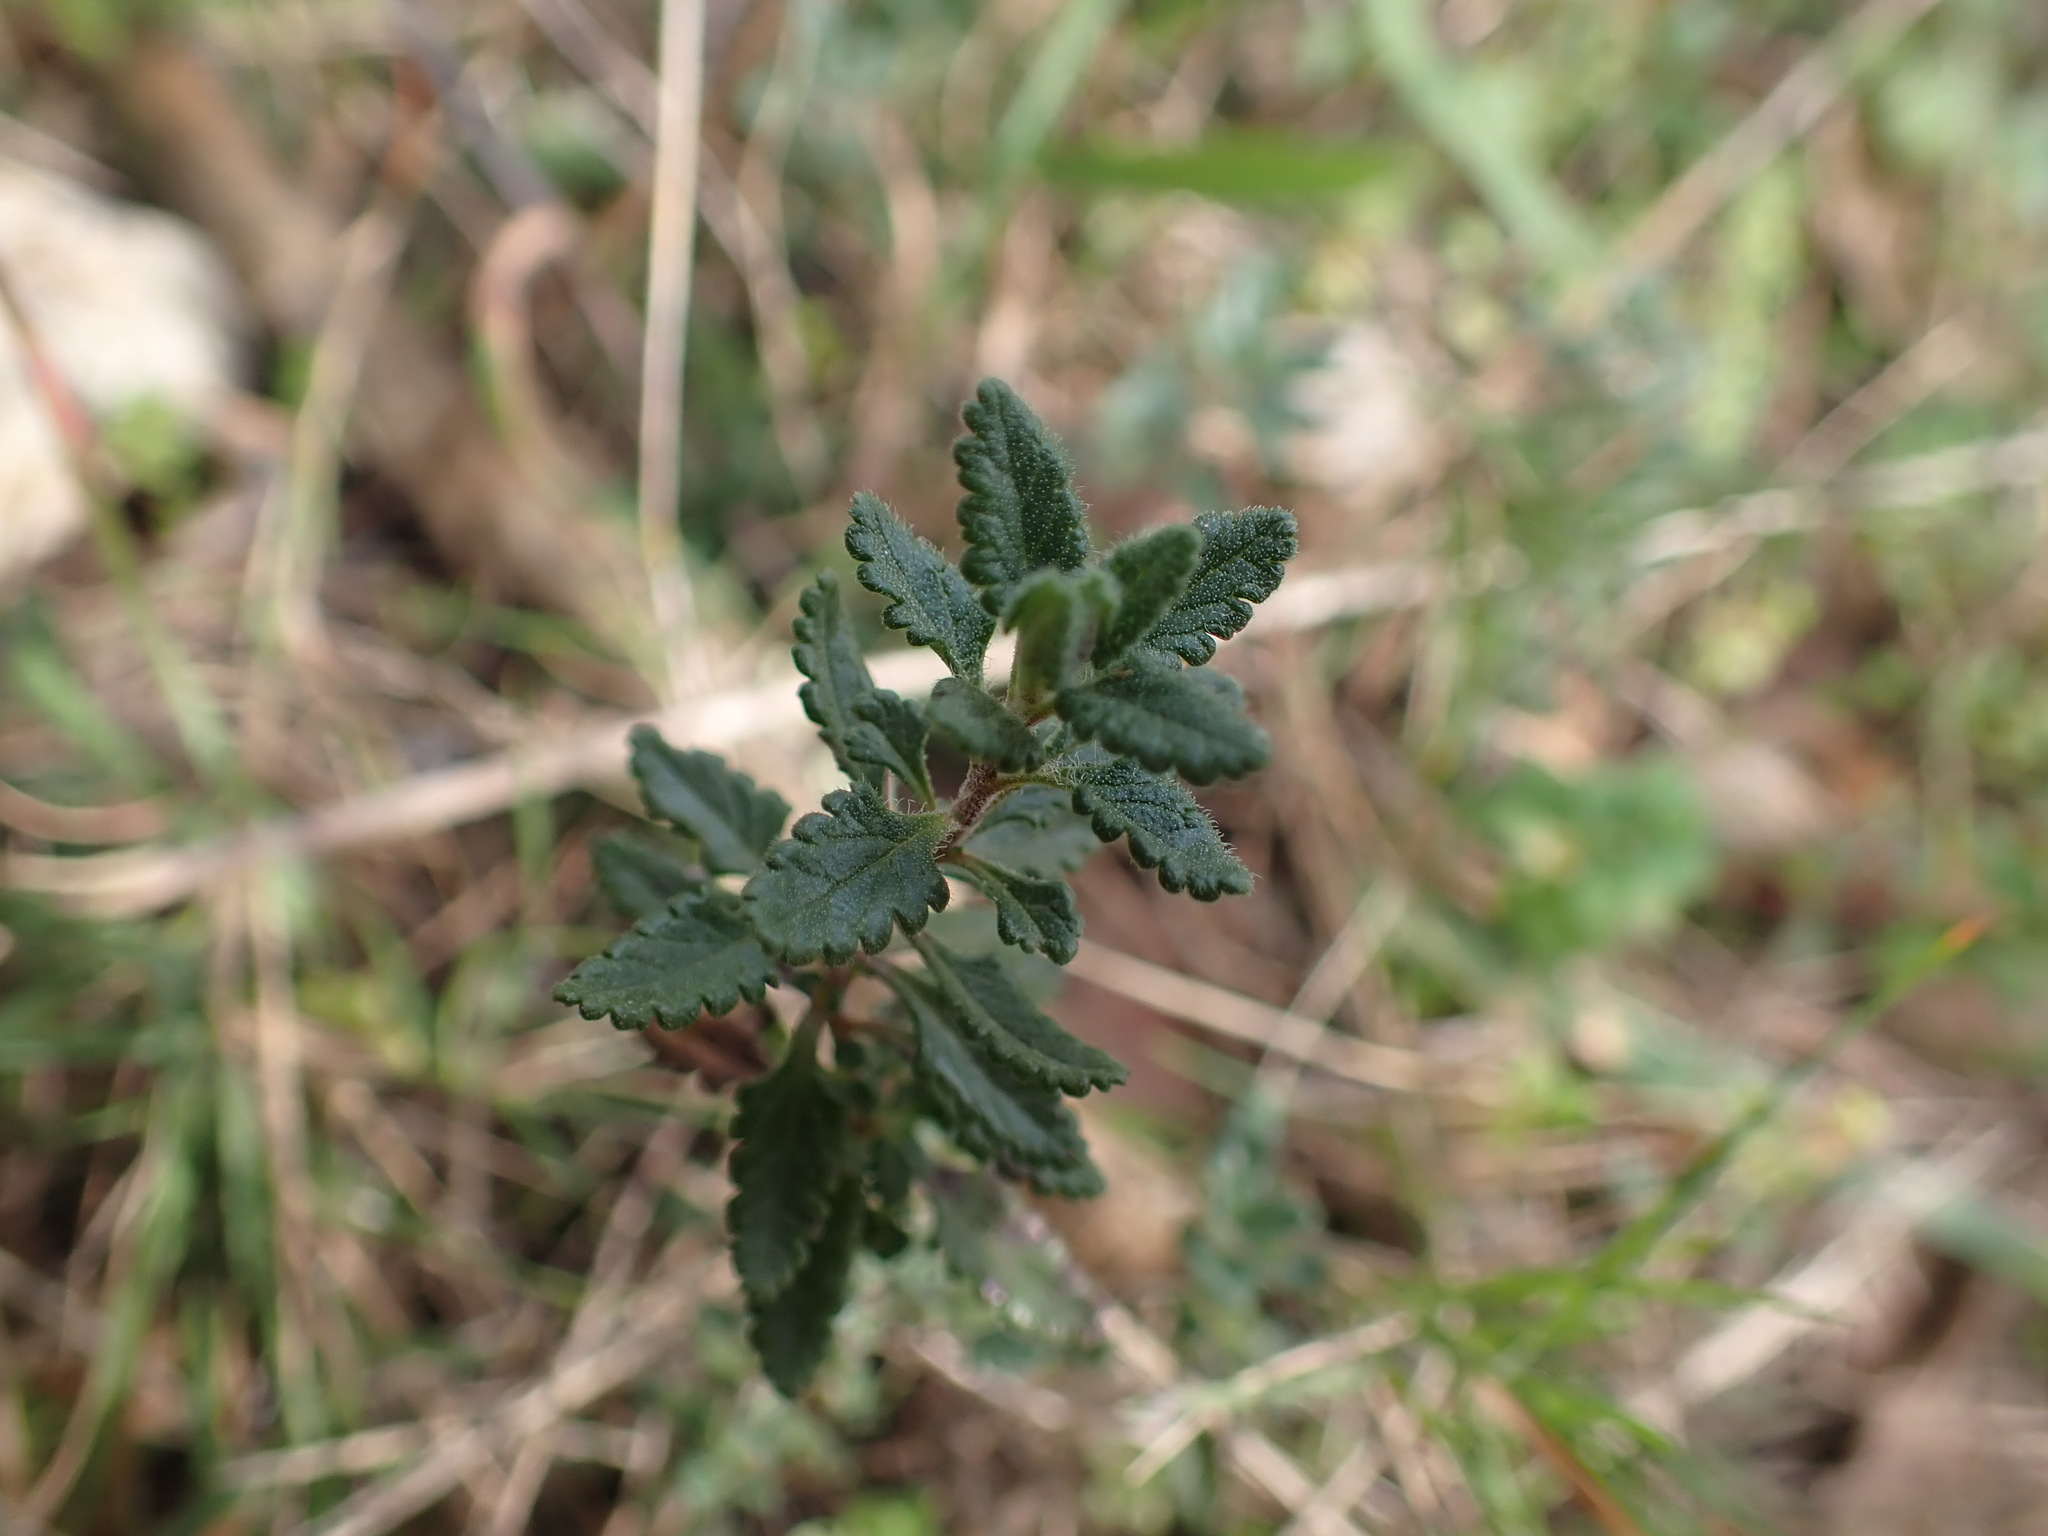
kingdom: Plantae
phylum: Tracheophyta
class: Magnoliopsida
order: Lamiales
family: Lamiaceae
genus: Teucrium
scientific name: Teucrium chamaedrys
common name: Wall germander
